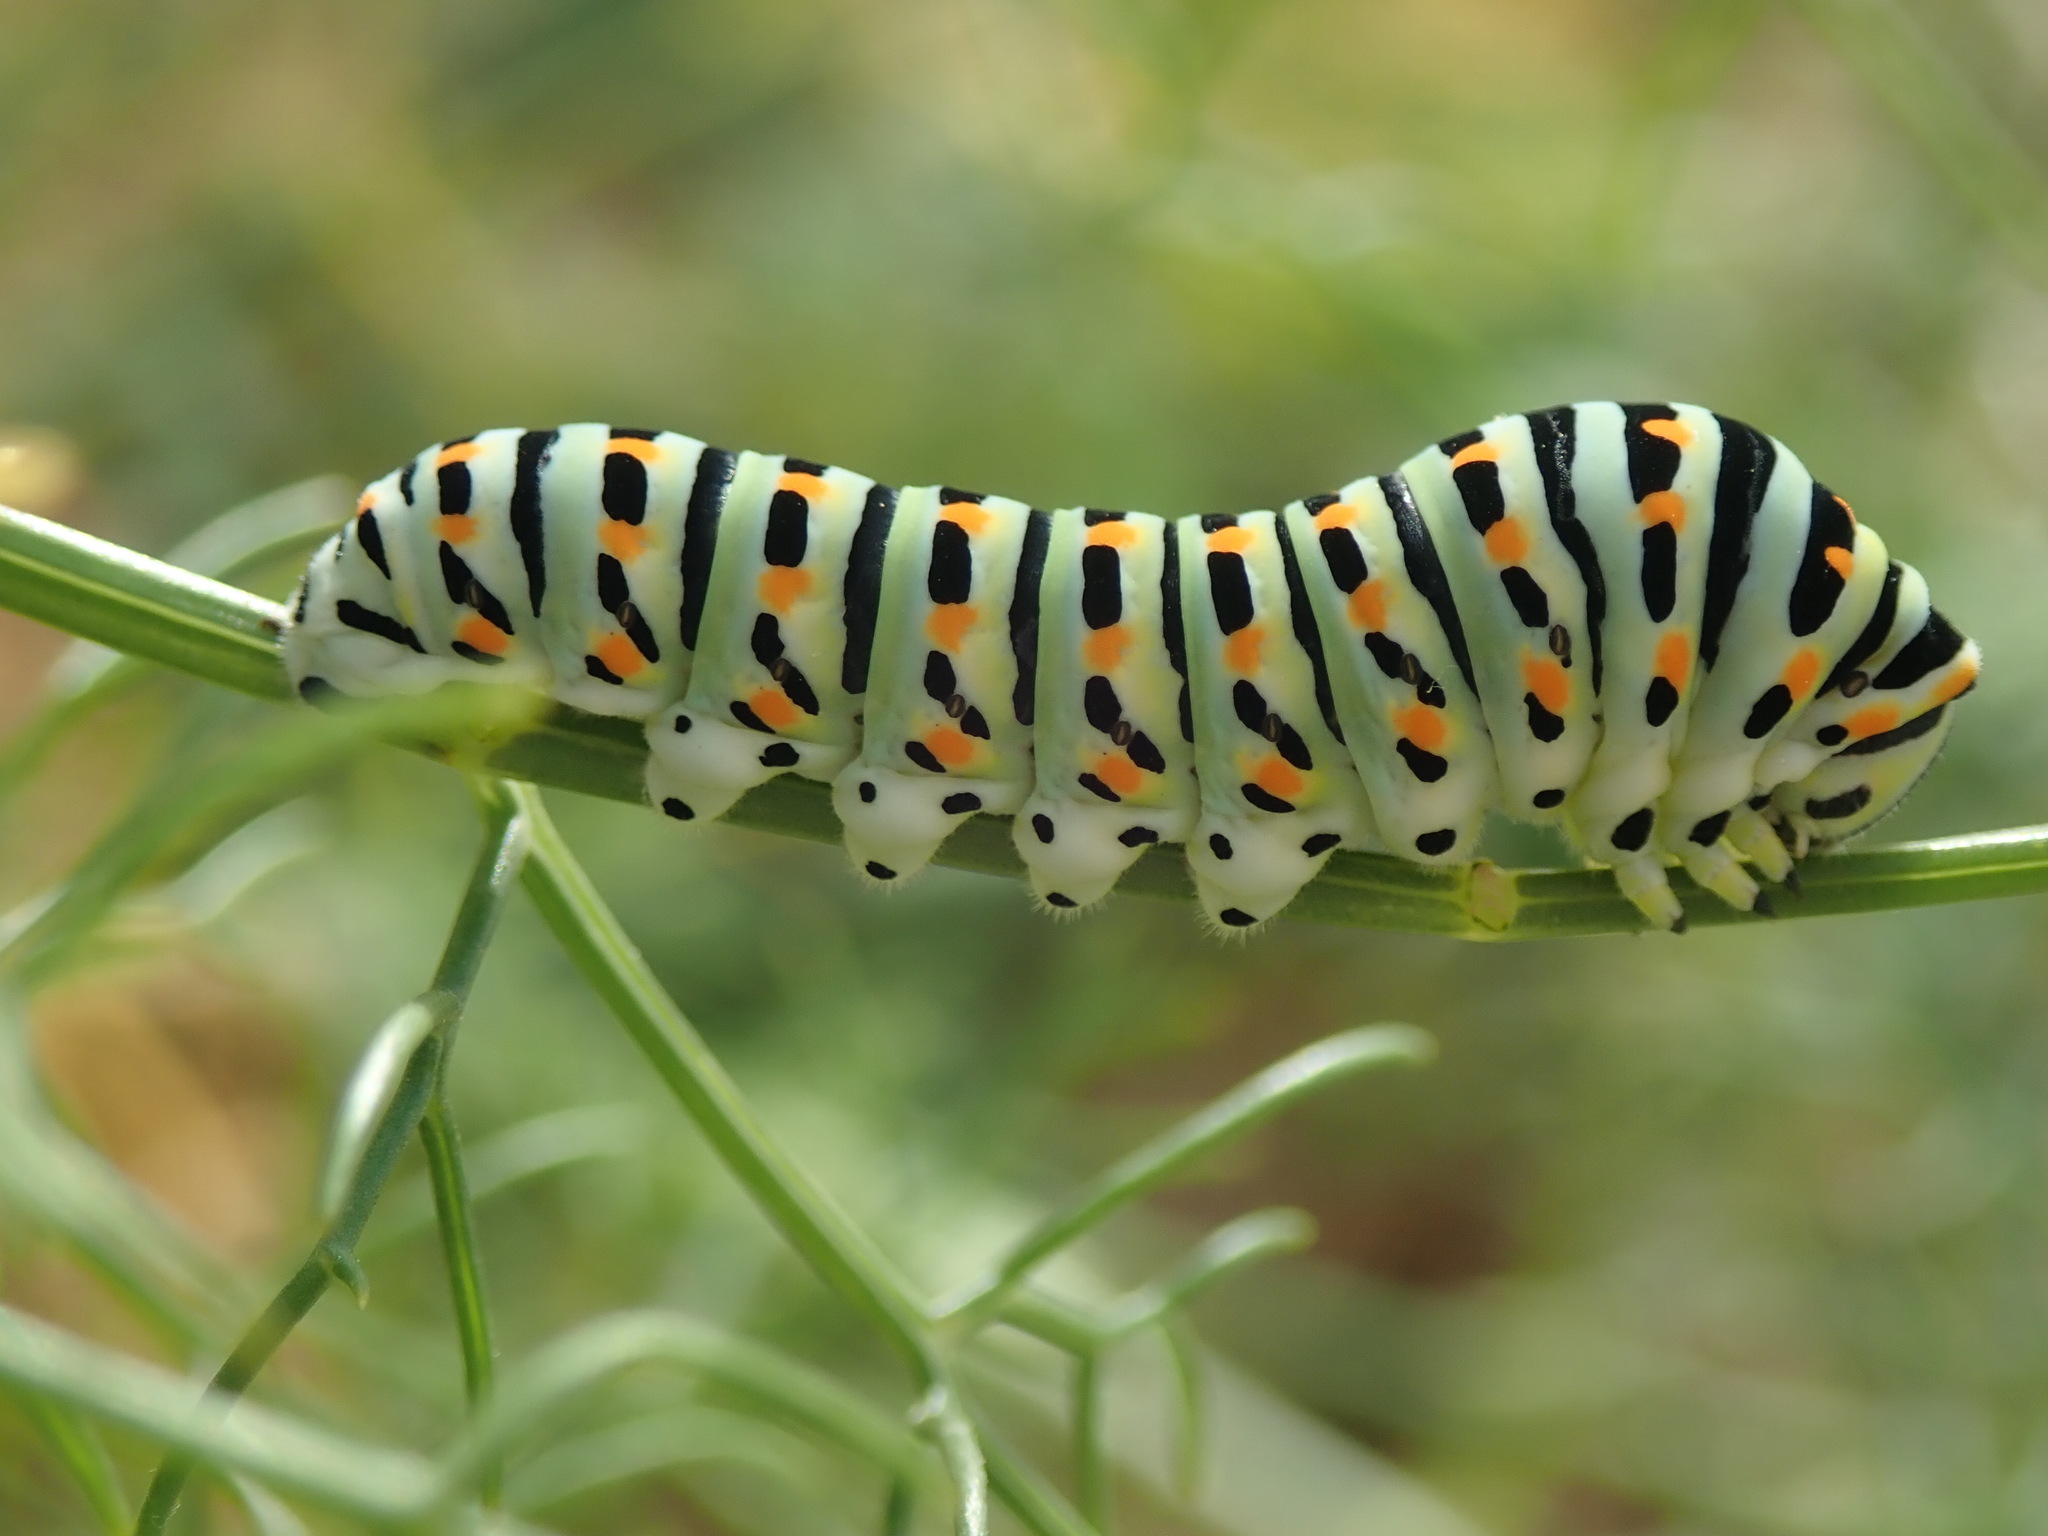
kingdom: Animalia
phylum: Arthropoda
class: Insecta
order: Lepidoptera
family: Papilionidae
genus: Papilio
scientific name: Papilio machaon
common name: Swallowtail
